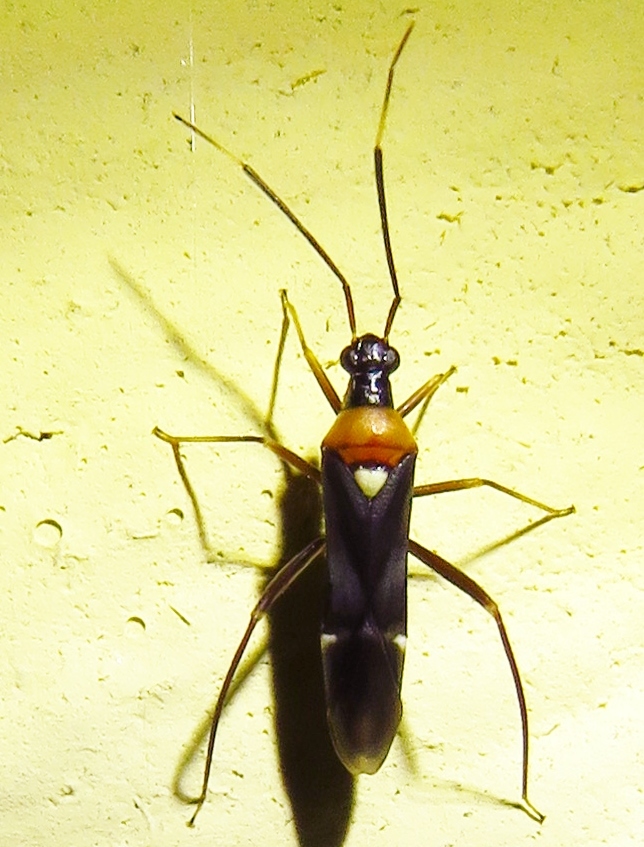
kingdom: Animalia
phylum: Arthropoda
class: Insecta
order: Hemiptera
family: Miridae
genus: Pseudoxenetus
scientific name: Pseudoxenetus regalis
